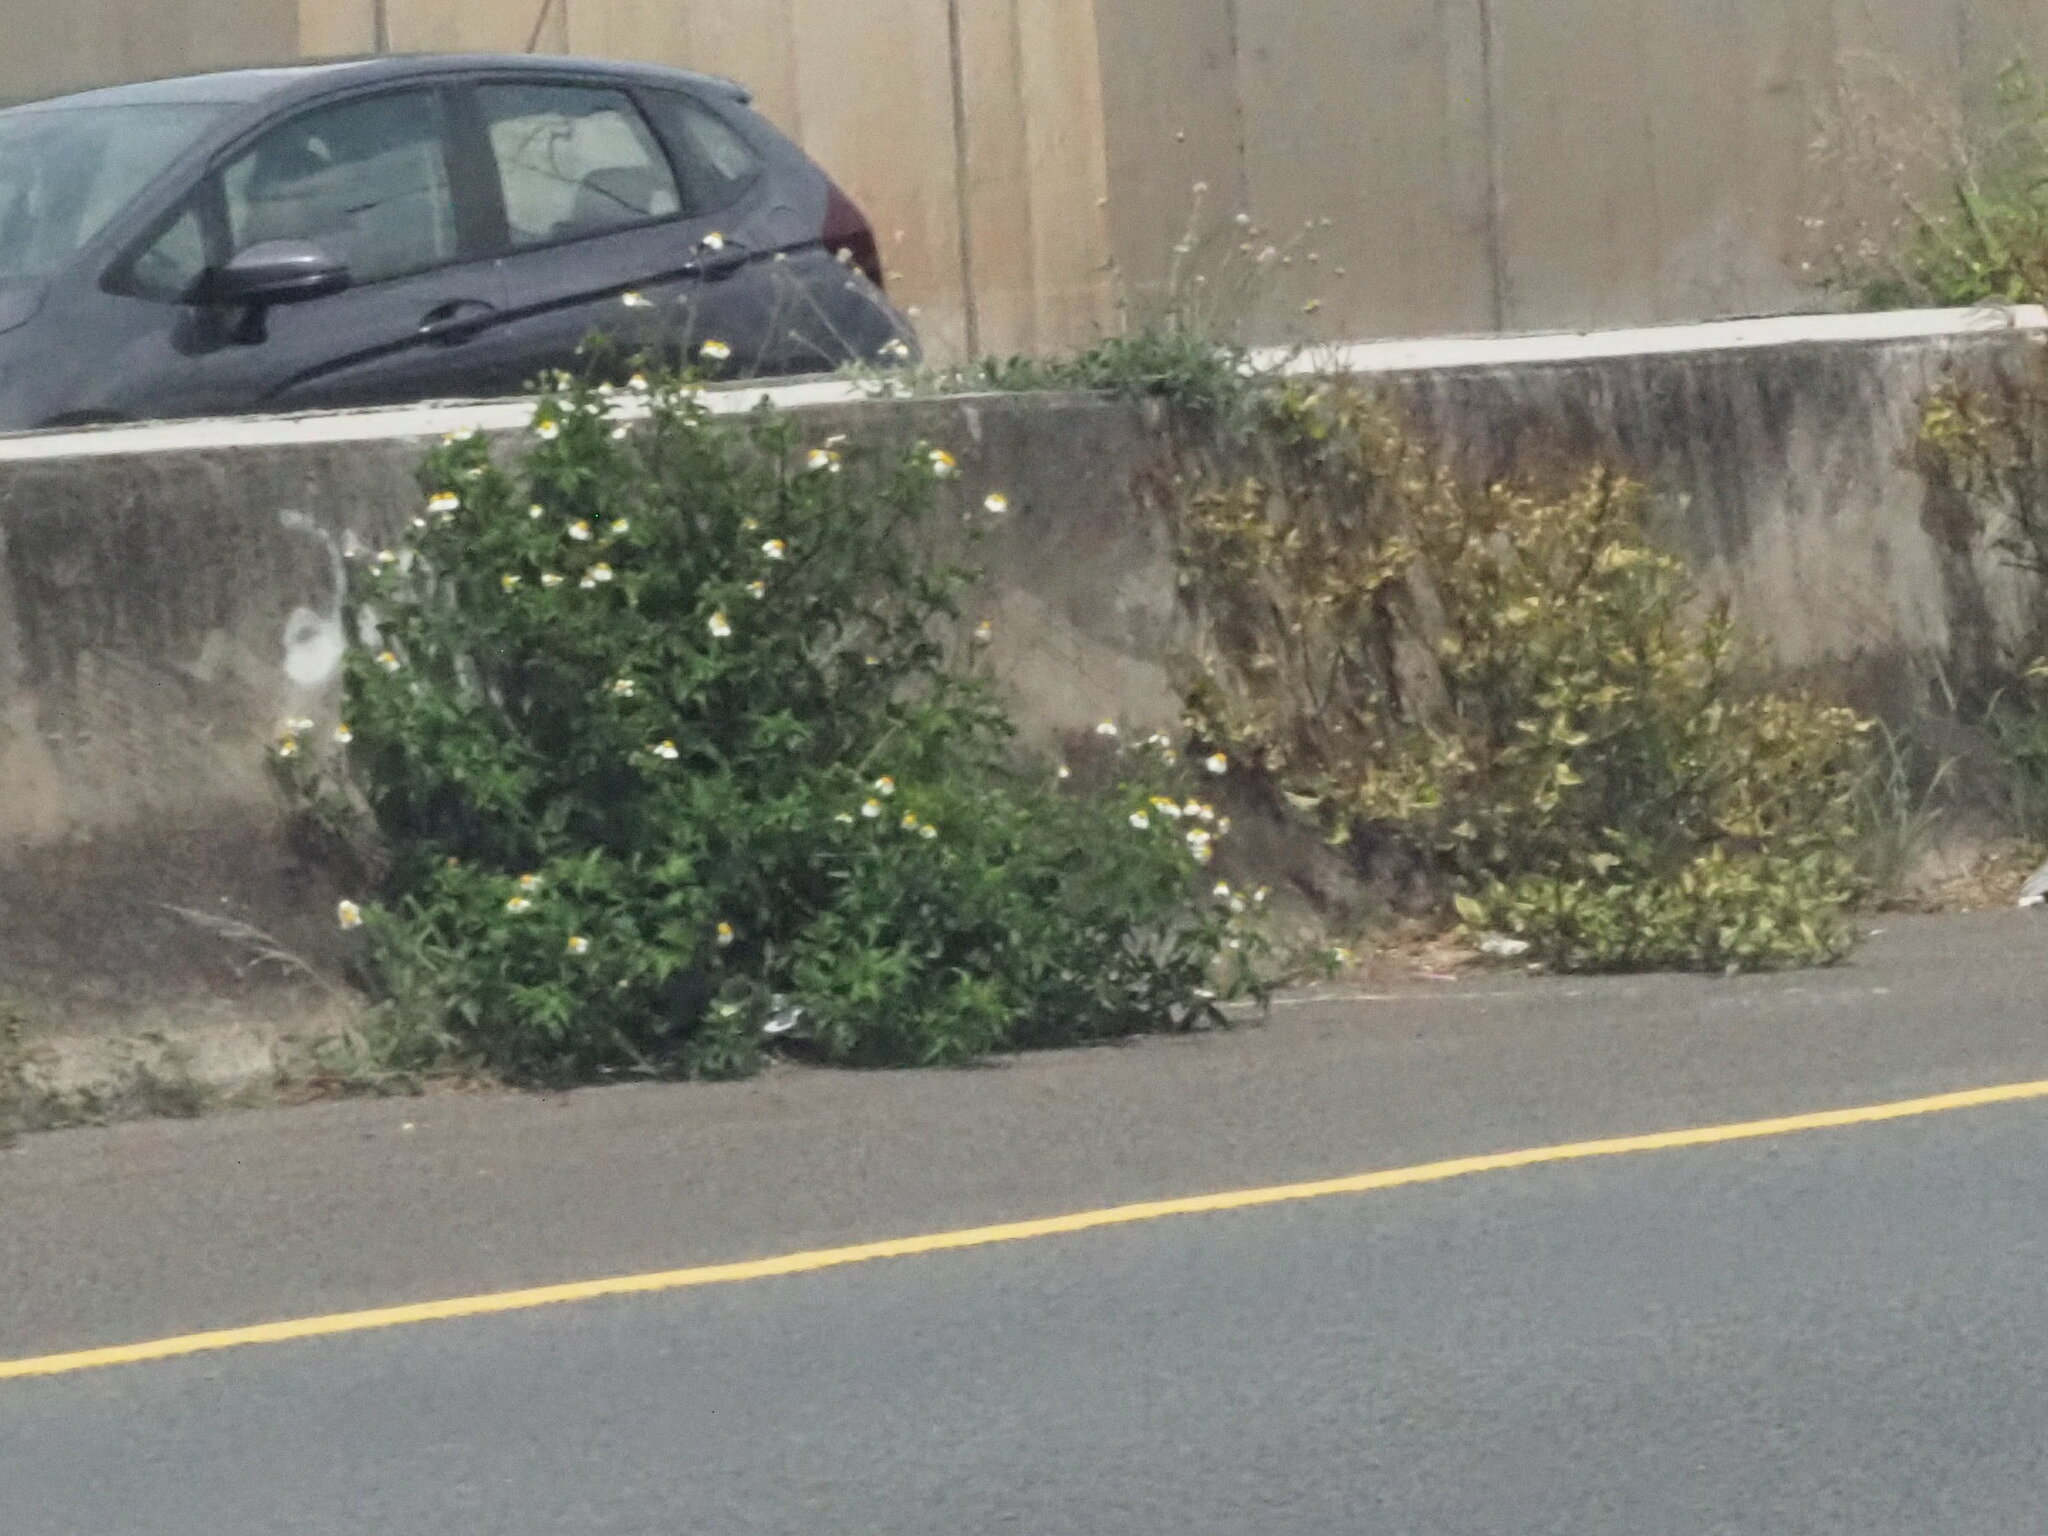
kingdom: Plantae
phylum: Tracheophyta
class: Magnoliopsida
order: Asterales
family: Asteraceae
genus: Bidens
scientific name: Bidens alba
